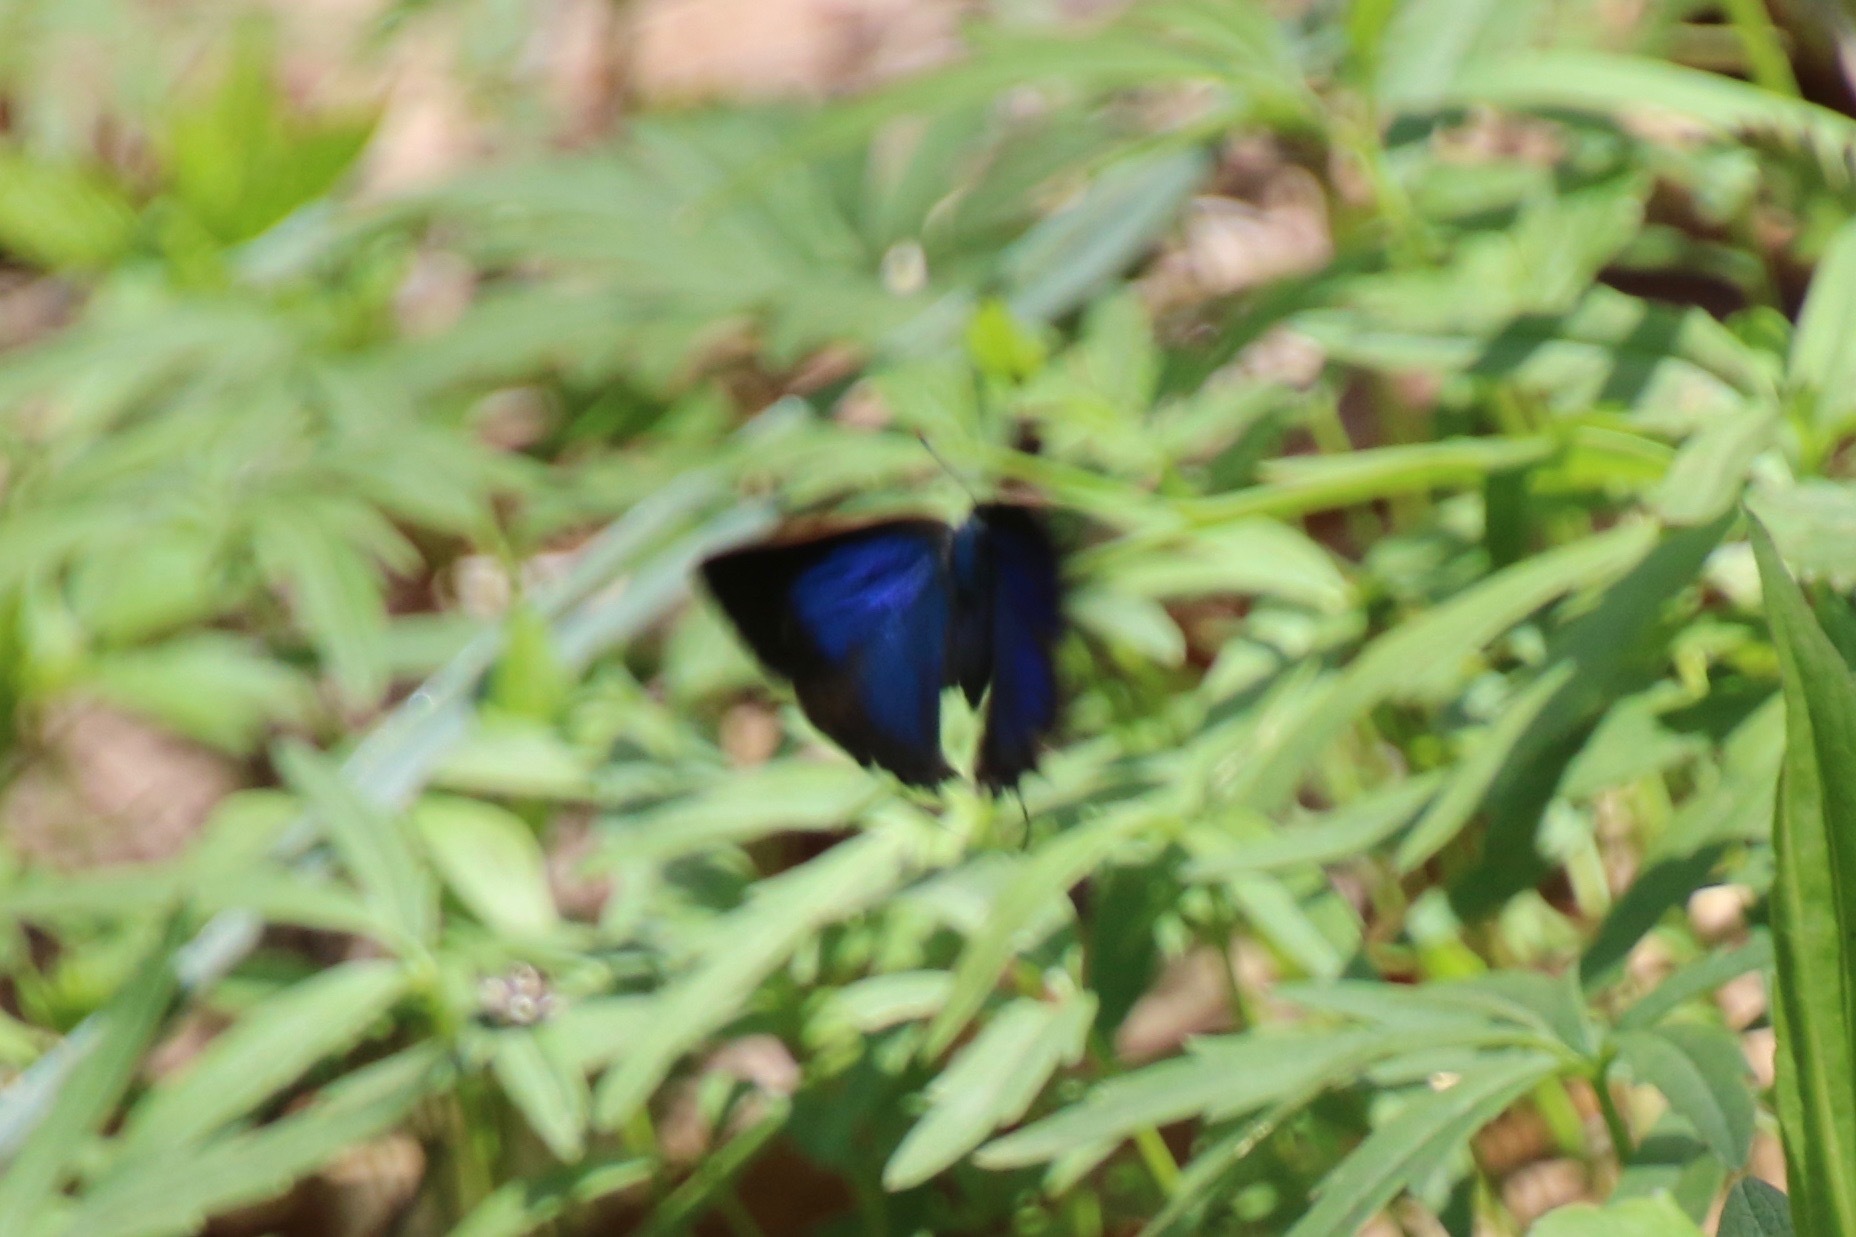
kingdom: Animalia
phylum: Arthropoda
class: Insecta
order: Lepidoptera
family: Lycaenidae
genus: Parrhasius
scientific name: Parrhasius m-album
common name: White m hairstreak
